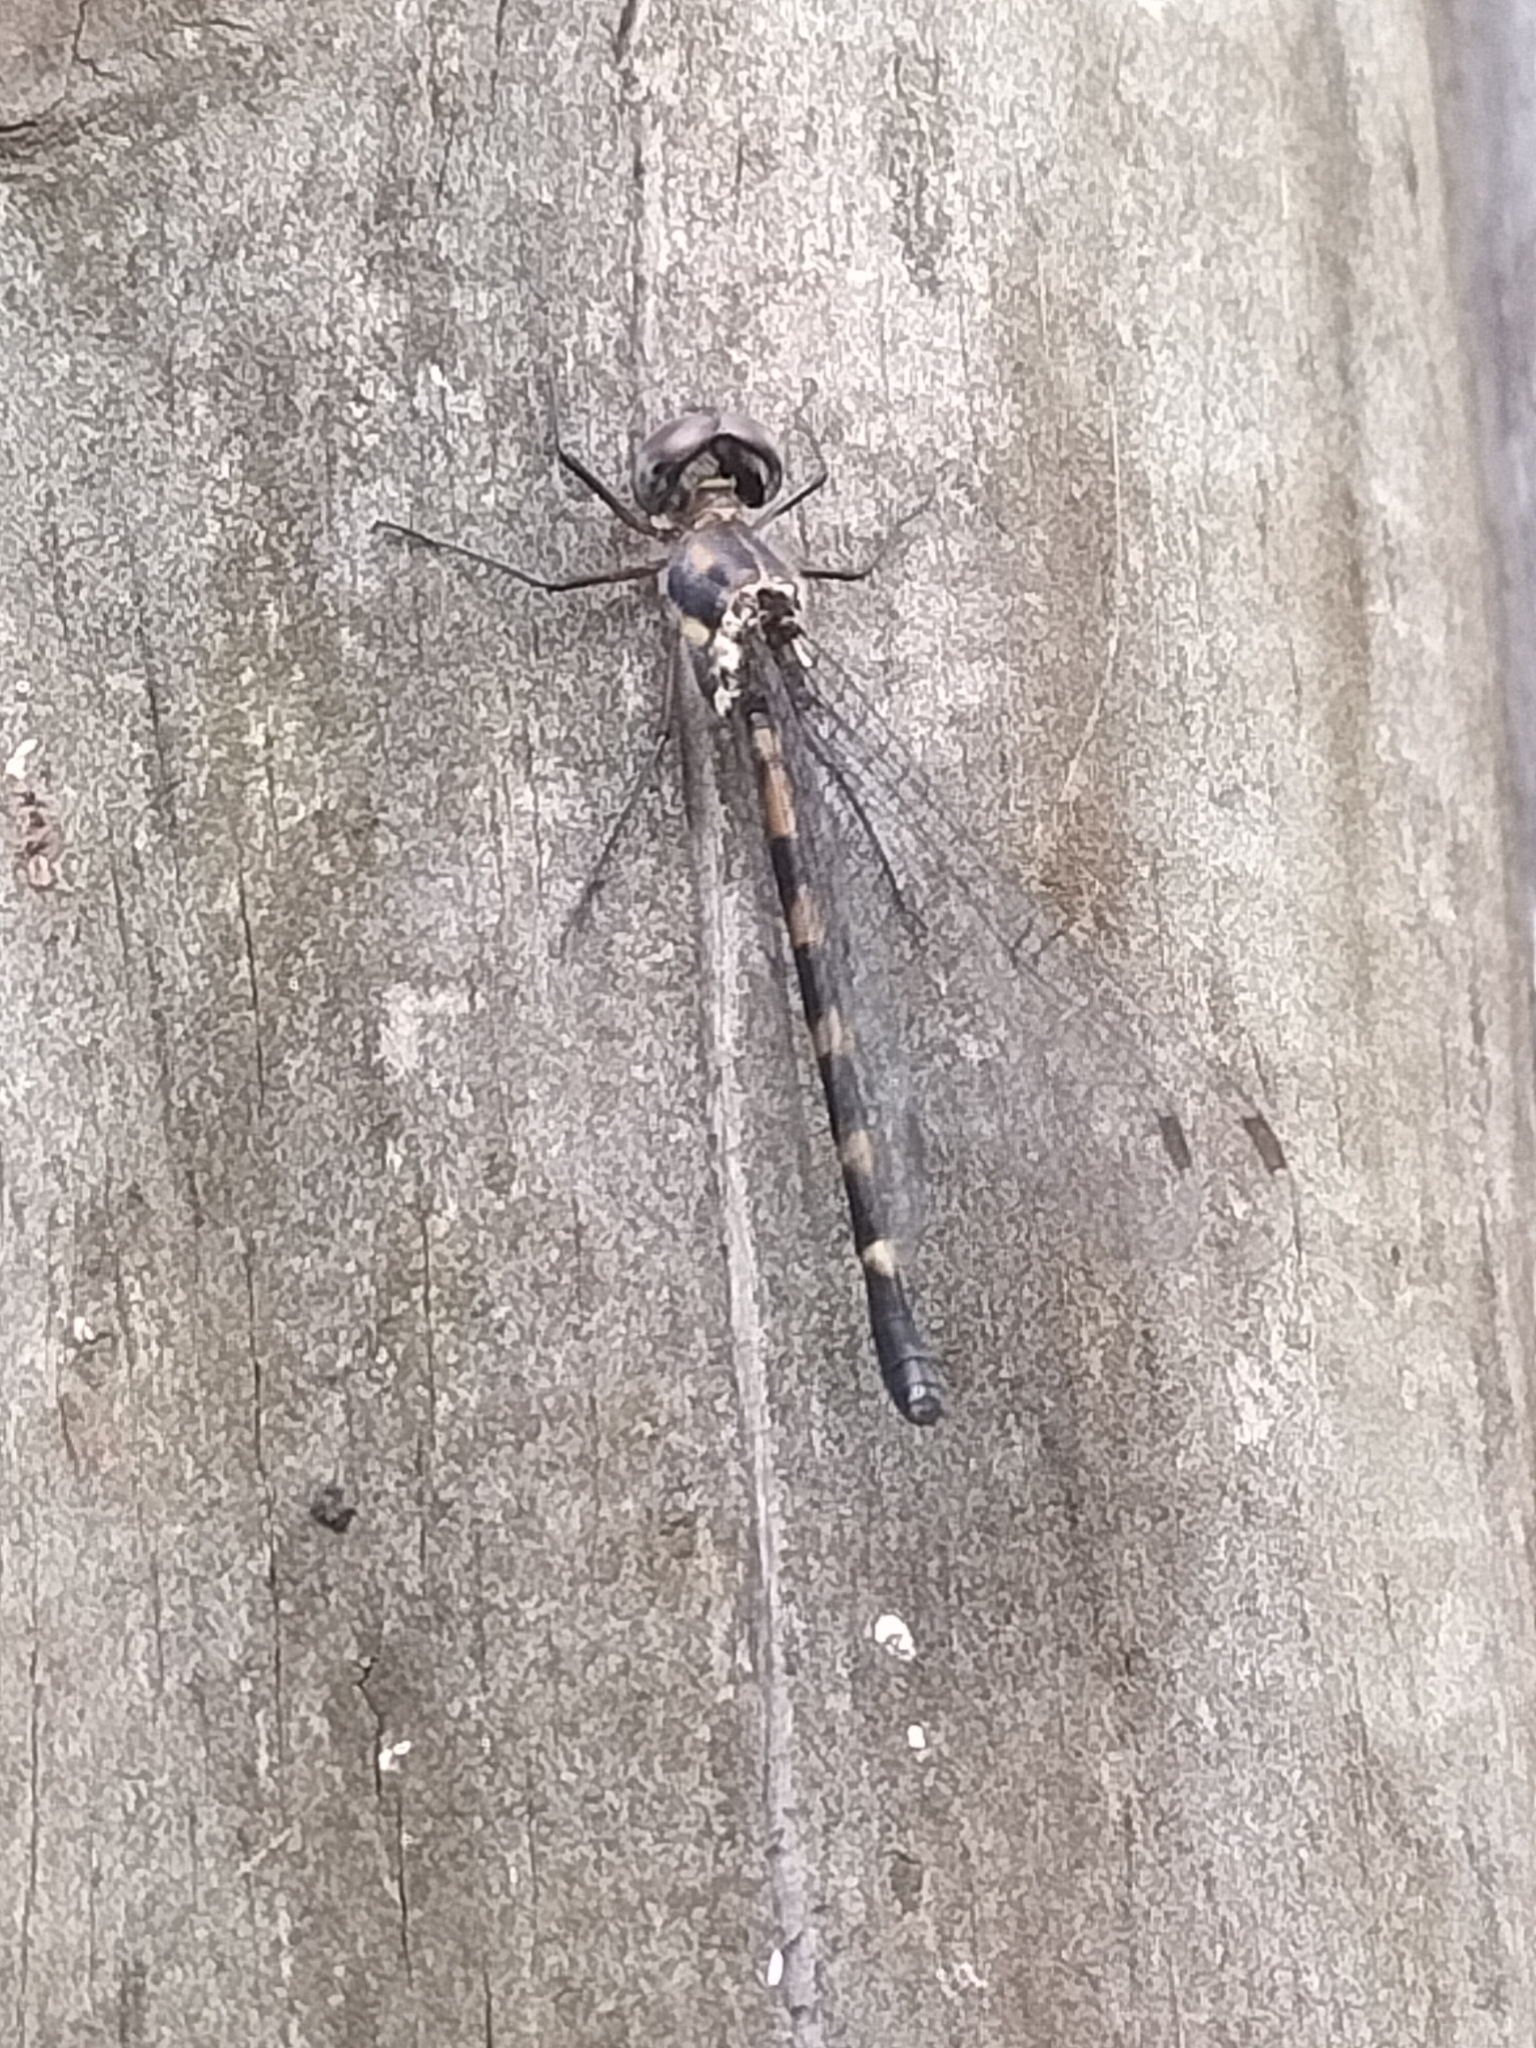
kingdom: Animalia
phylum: Arthropoda
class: Insecta
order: Odonata
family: Corduliidae
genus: Cordulephya
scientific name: Cordulephya bidens
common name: Tropical shutwing
